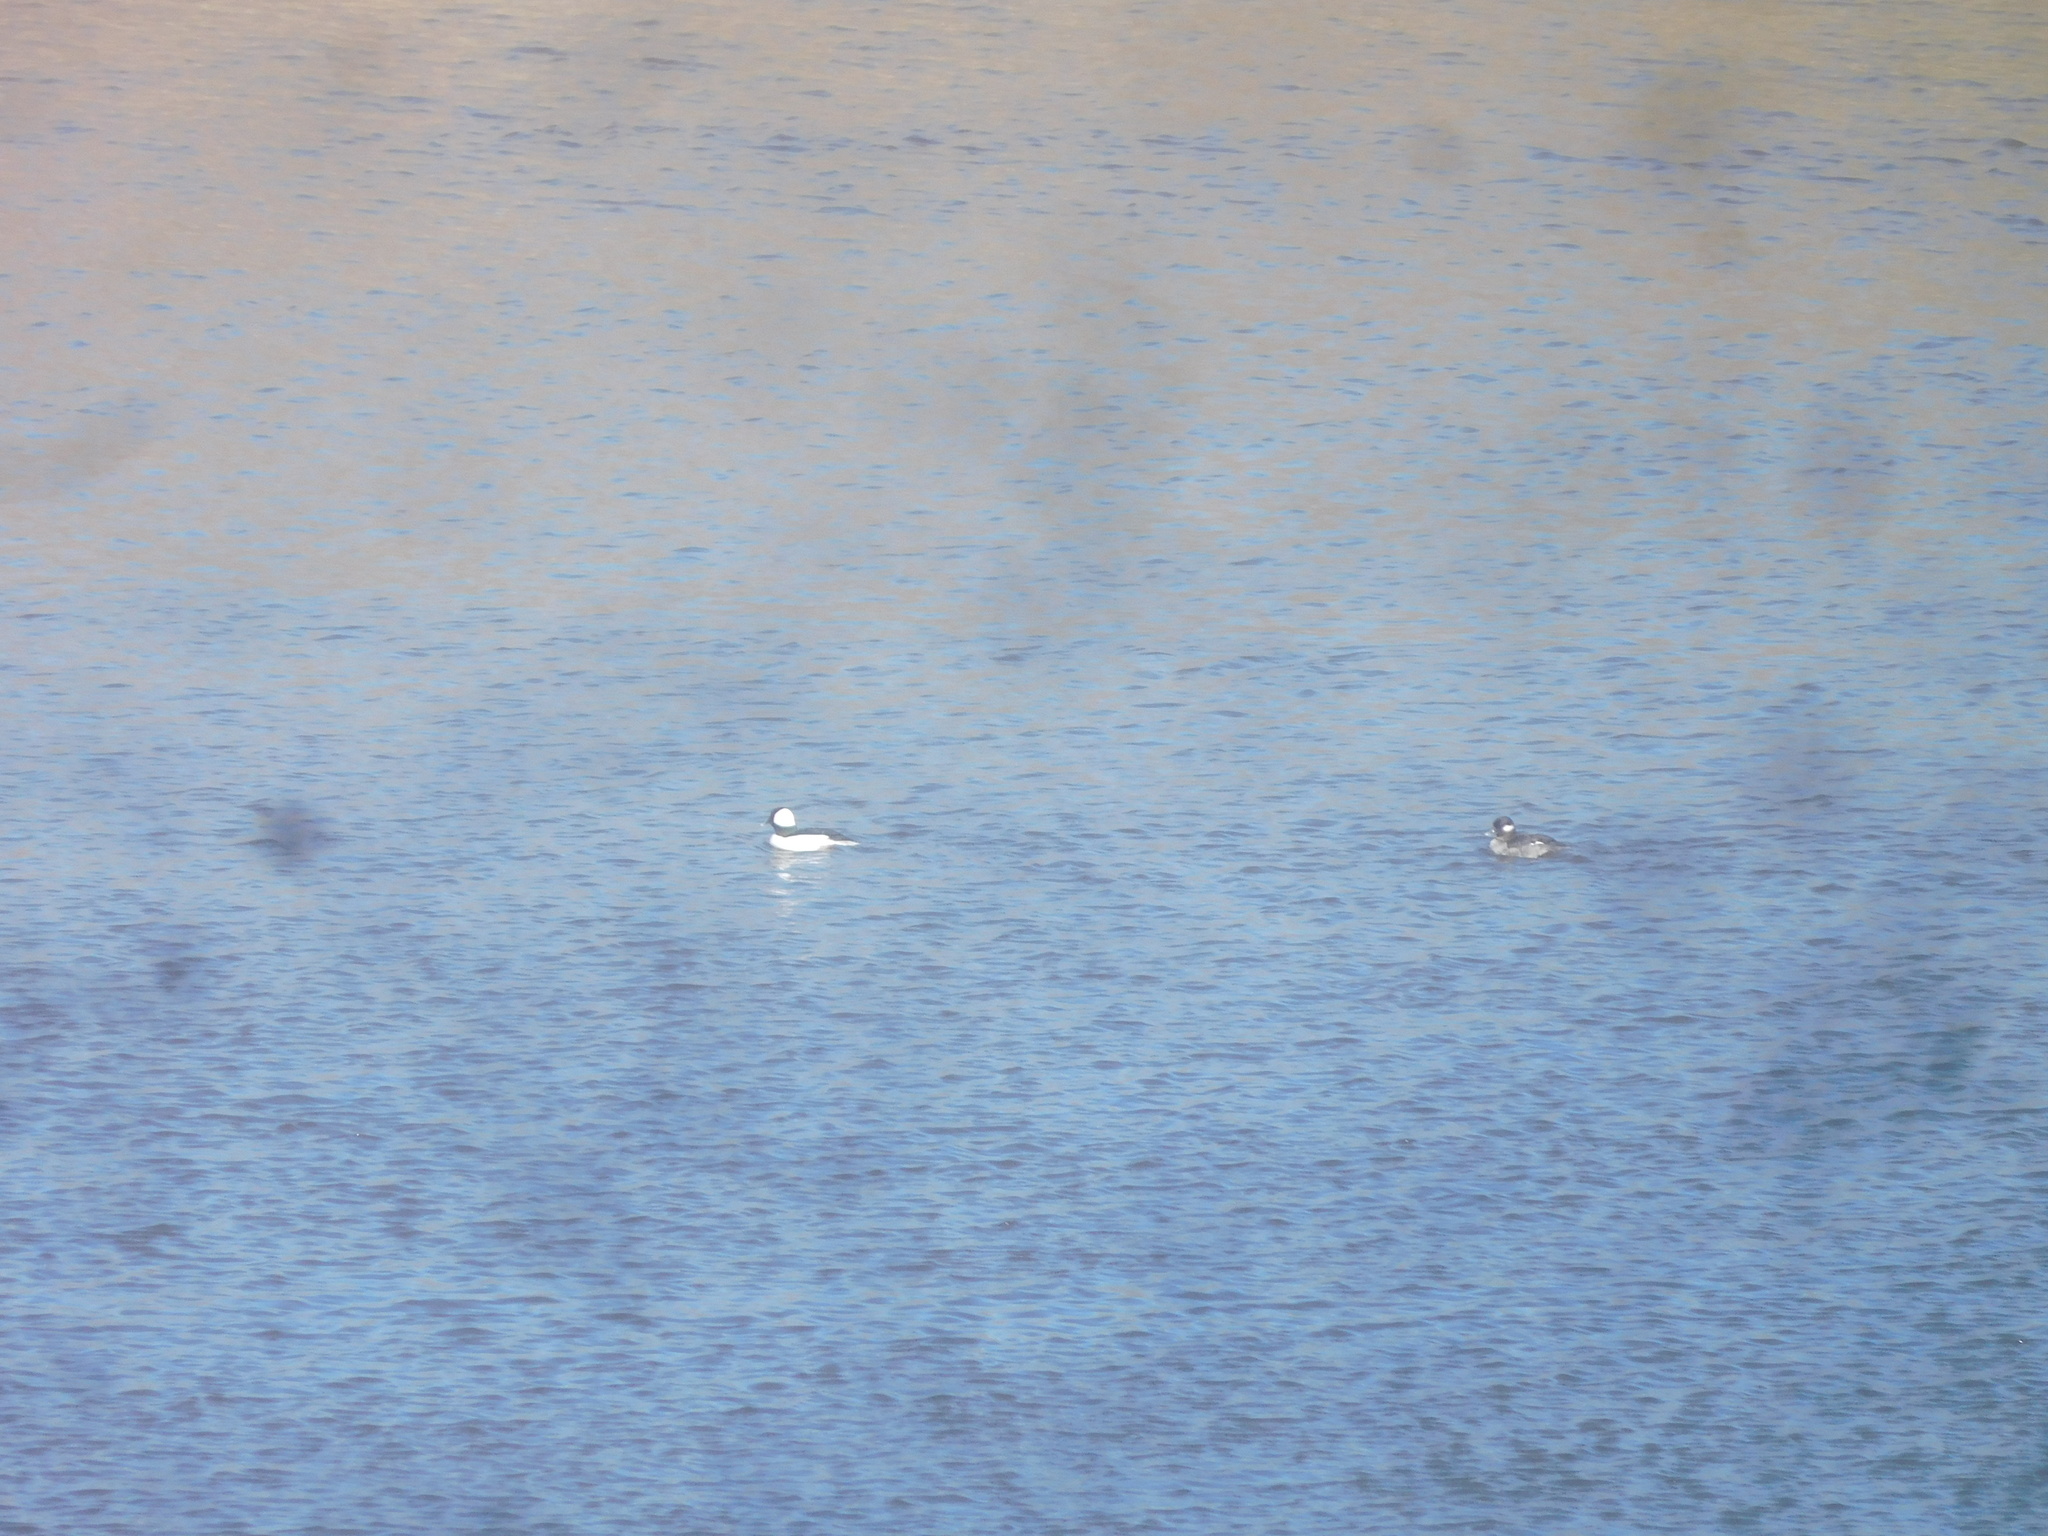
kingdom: Animalia
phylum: Chordata
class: Aves
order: Anseriformes
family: Anatidae
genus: Bucephala
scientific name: Bucephala albeola
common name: Bufflehead
